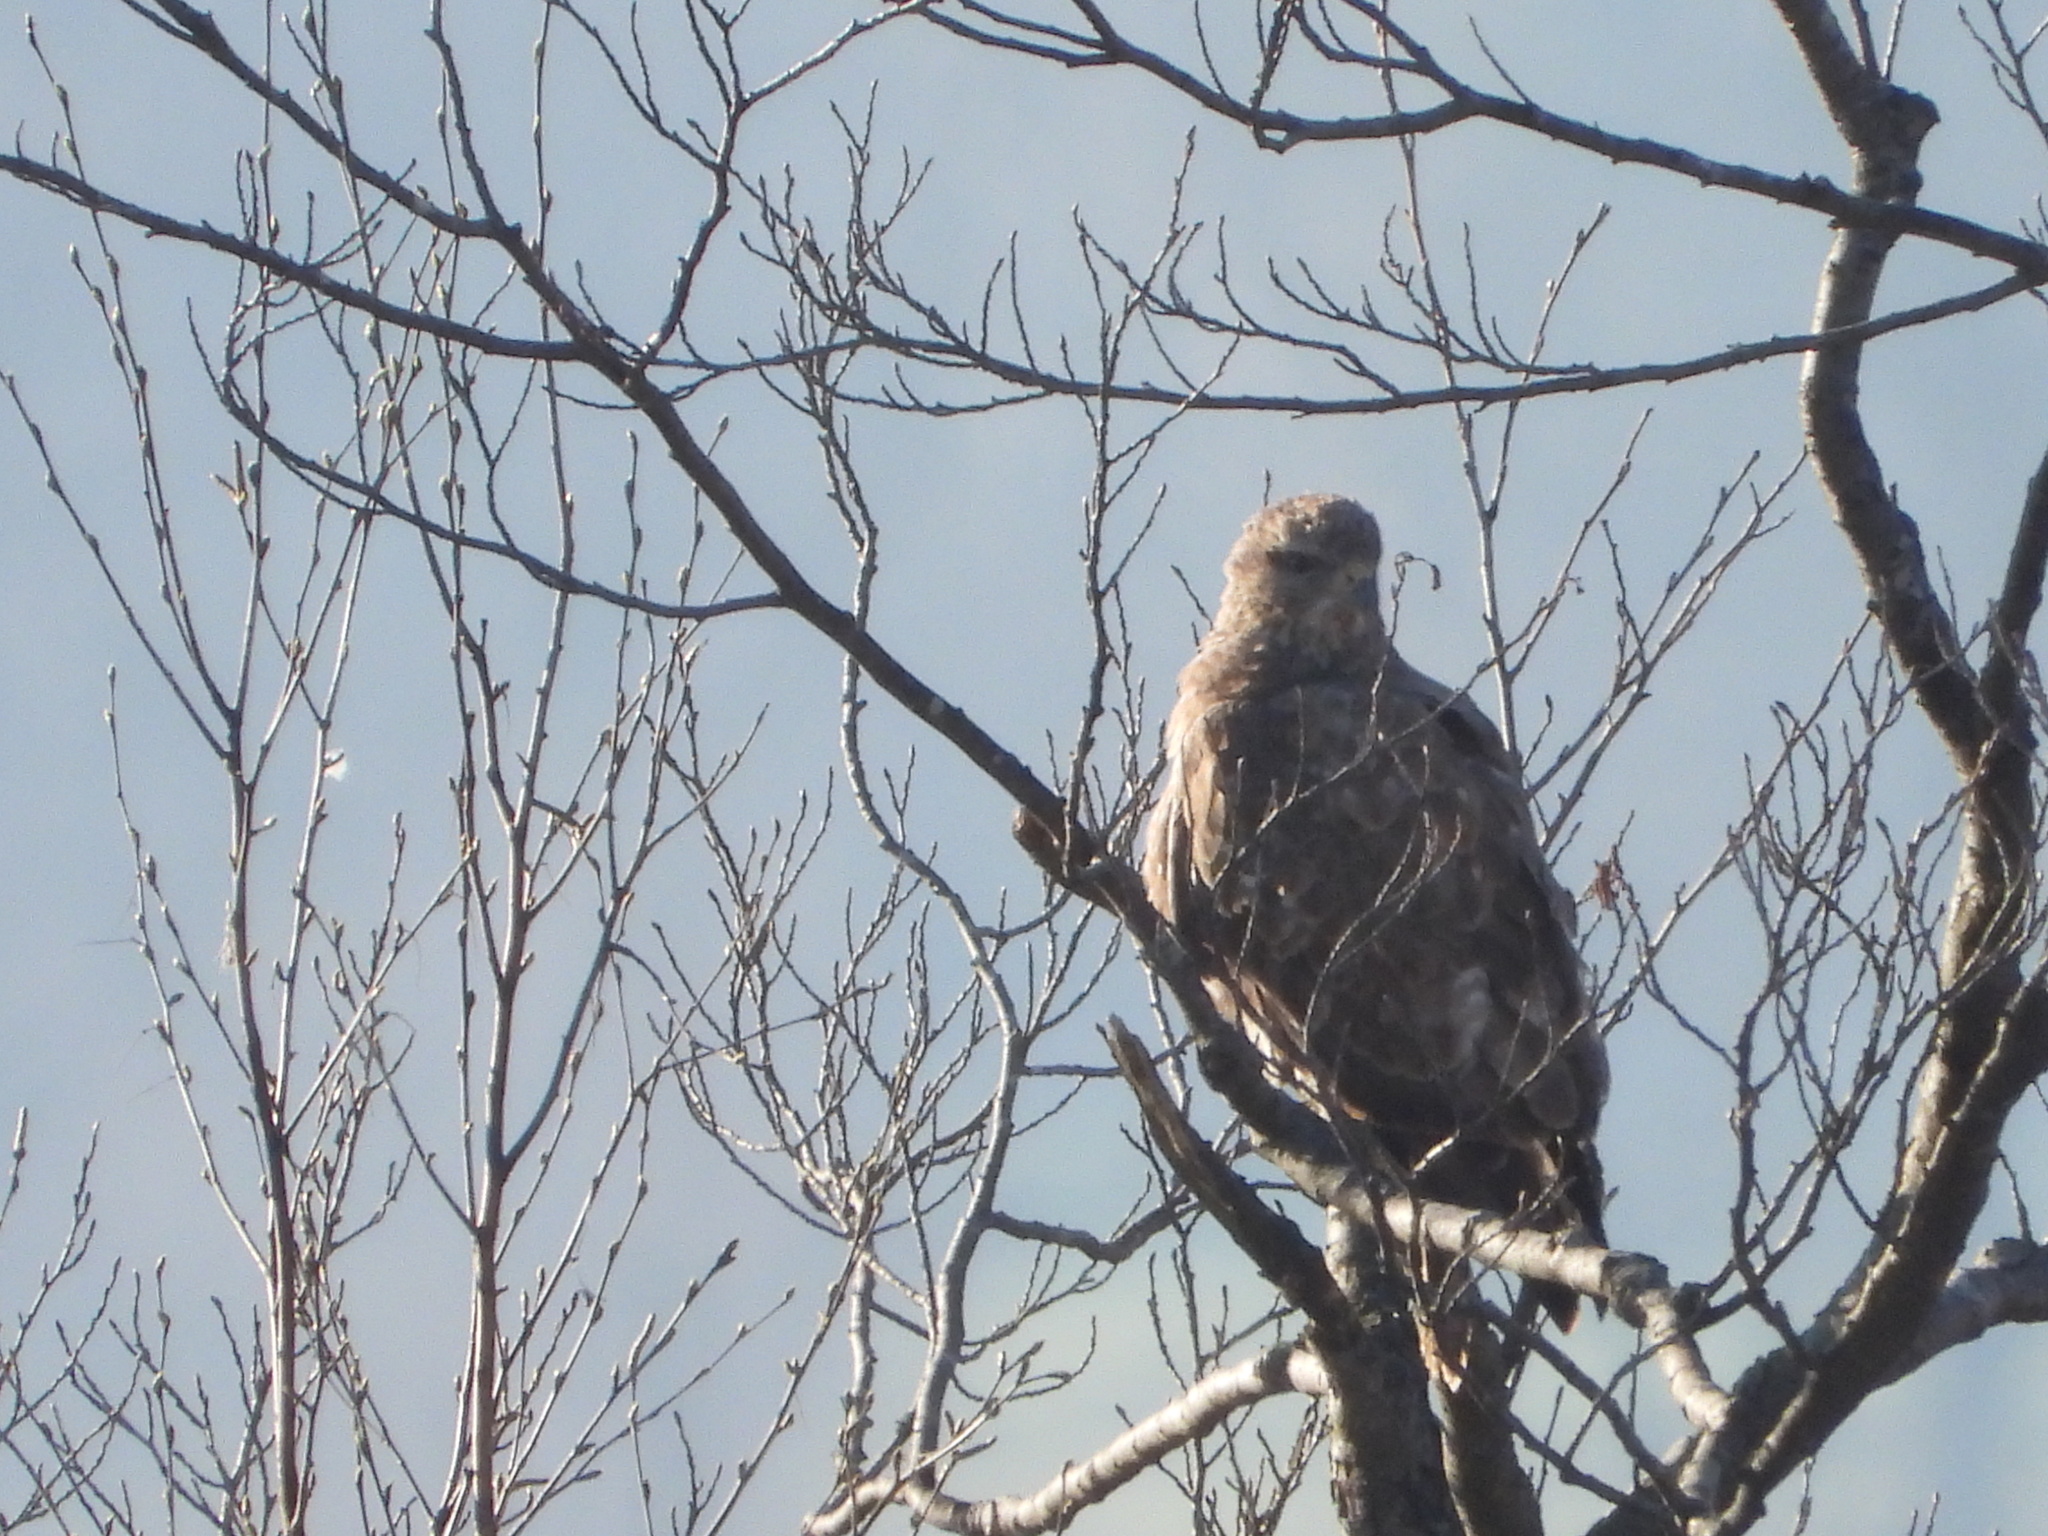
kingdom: Animalia
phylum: Chordata
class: Aves
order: Accipitriformes
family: Accipitridae
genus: Buteo
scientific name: Buteo buteo
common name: Common buzzard
